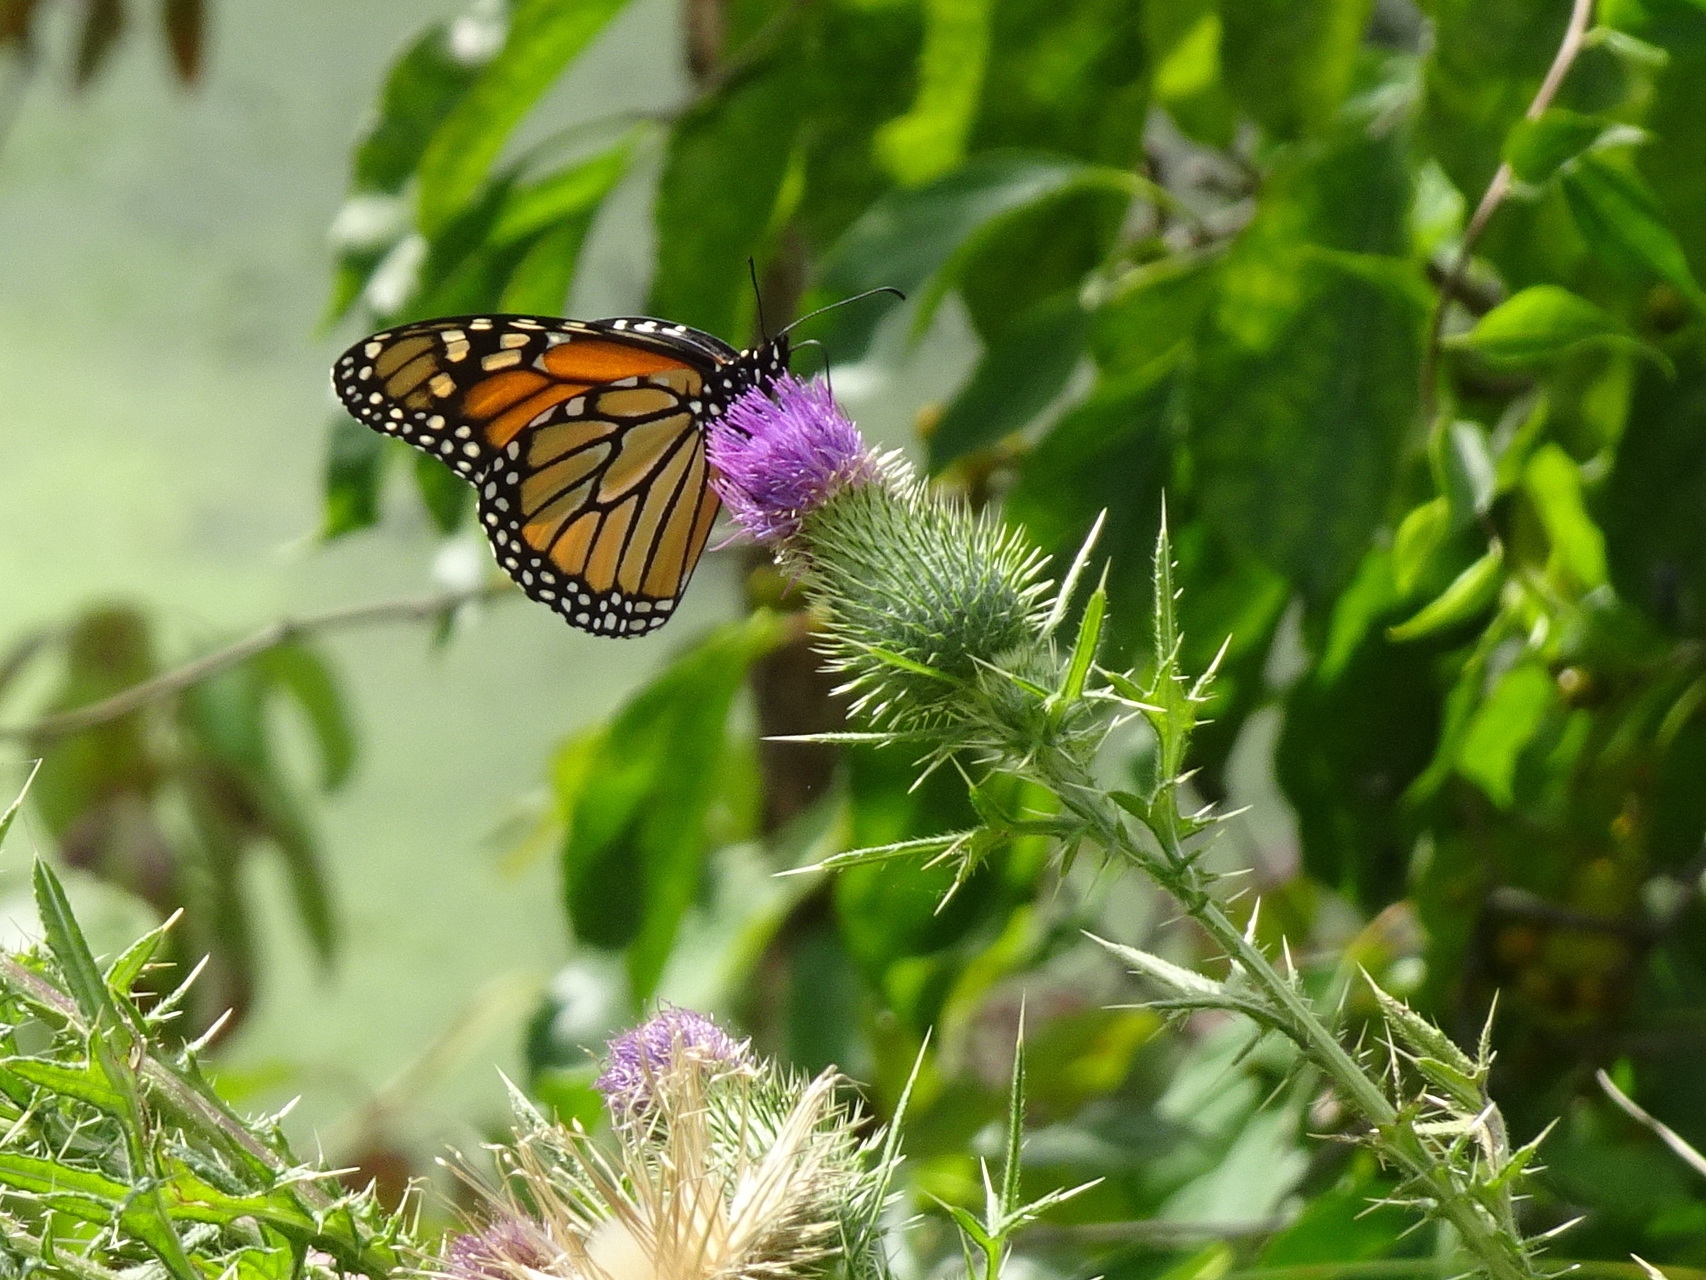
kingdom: Animalia
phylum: Arthropoda
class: Insecta
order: Lepidoptera
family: Nymphalidae
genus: Danaus
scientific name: Danaus plexippus
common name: Monarch
